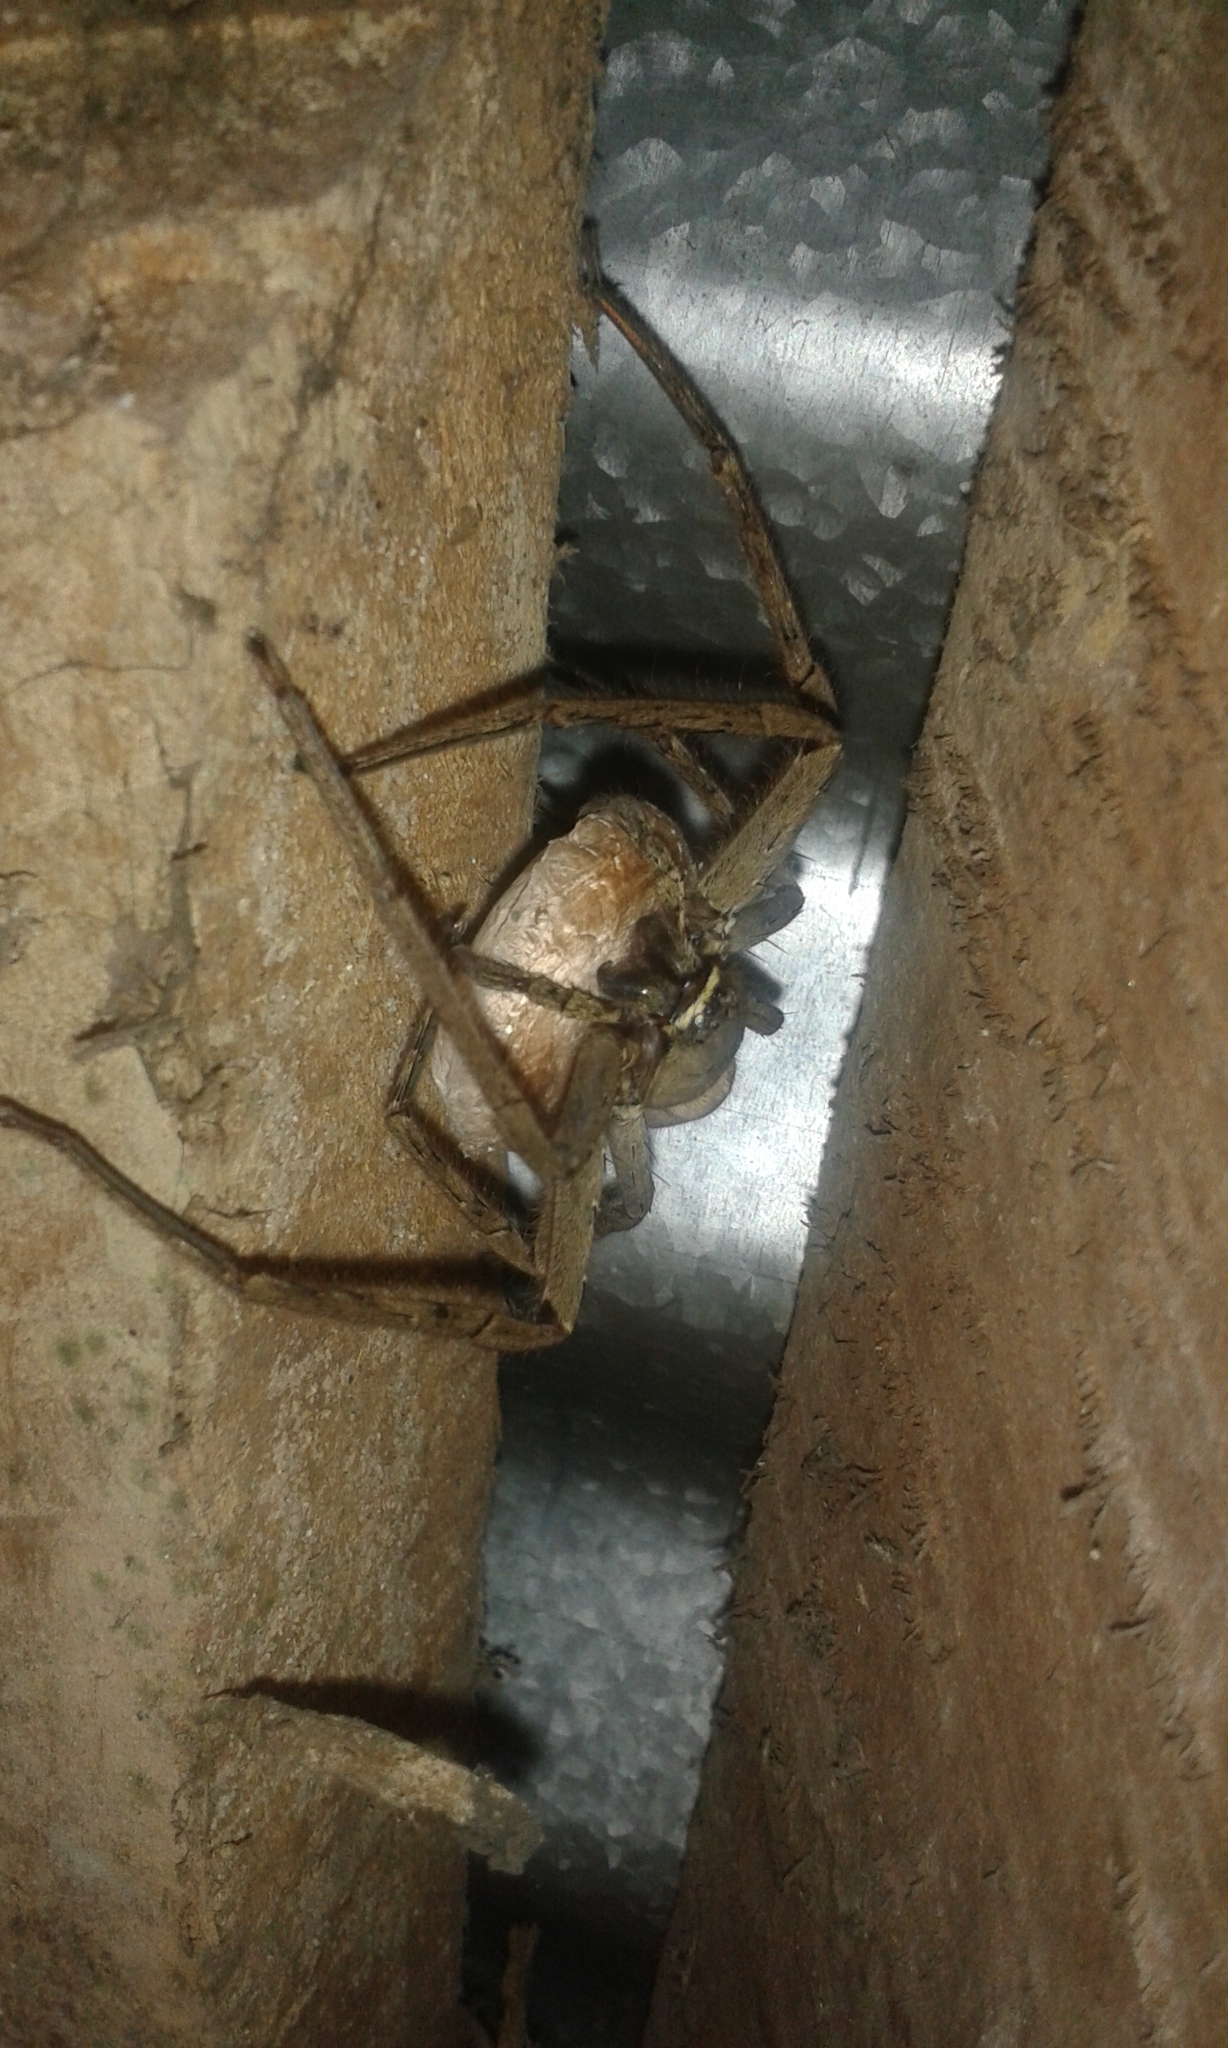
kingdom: Animalia
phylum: Arthropoda
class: Arachnida
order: Araneae
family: Sparassidae
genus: Heteropoda
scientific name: Heteropoda venatoria
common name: Huntsman spider
